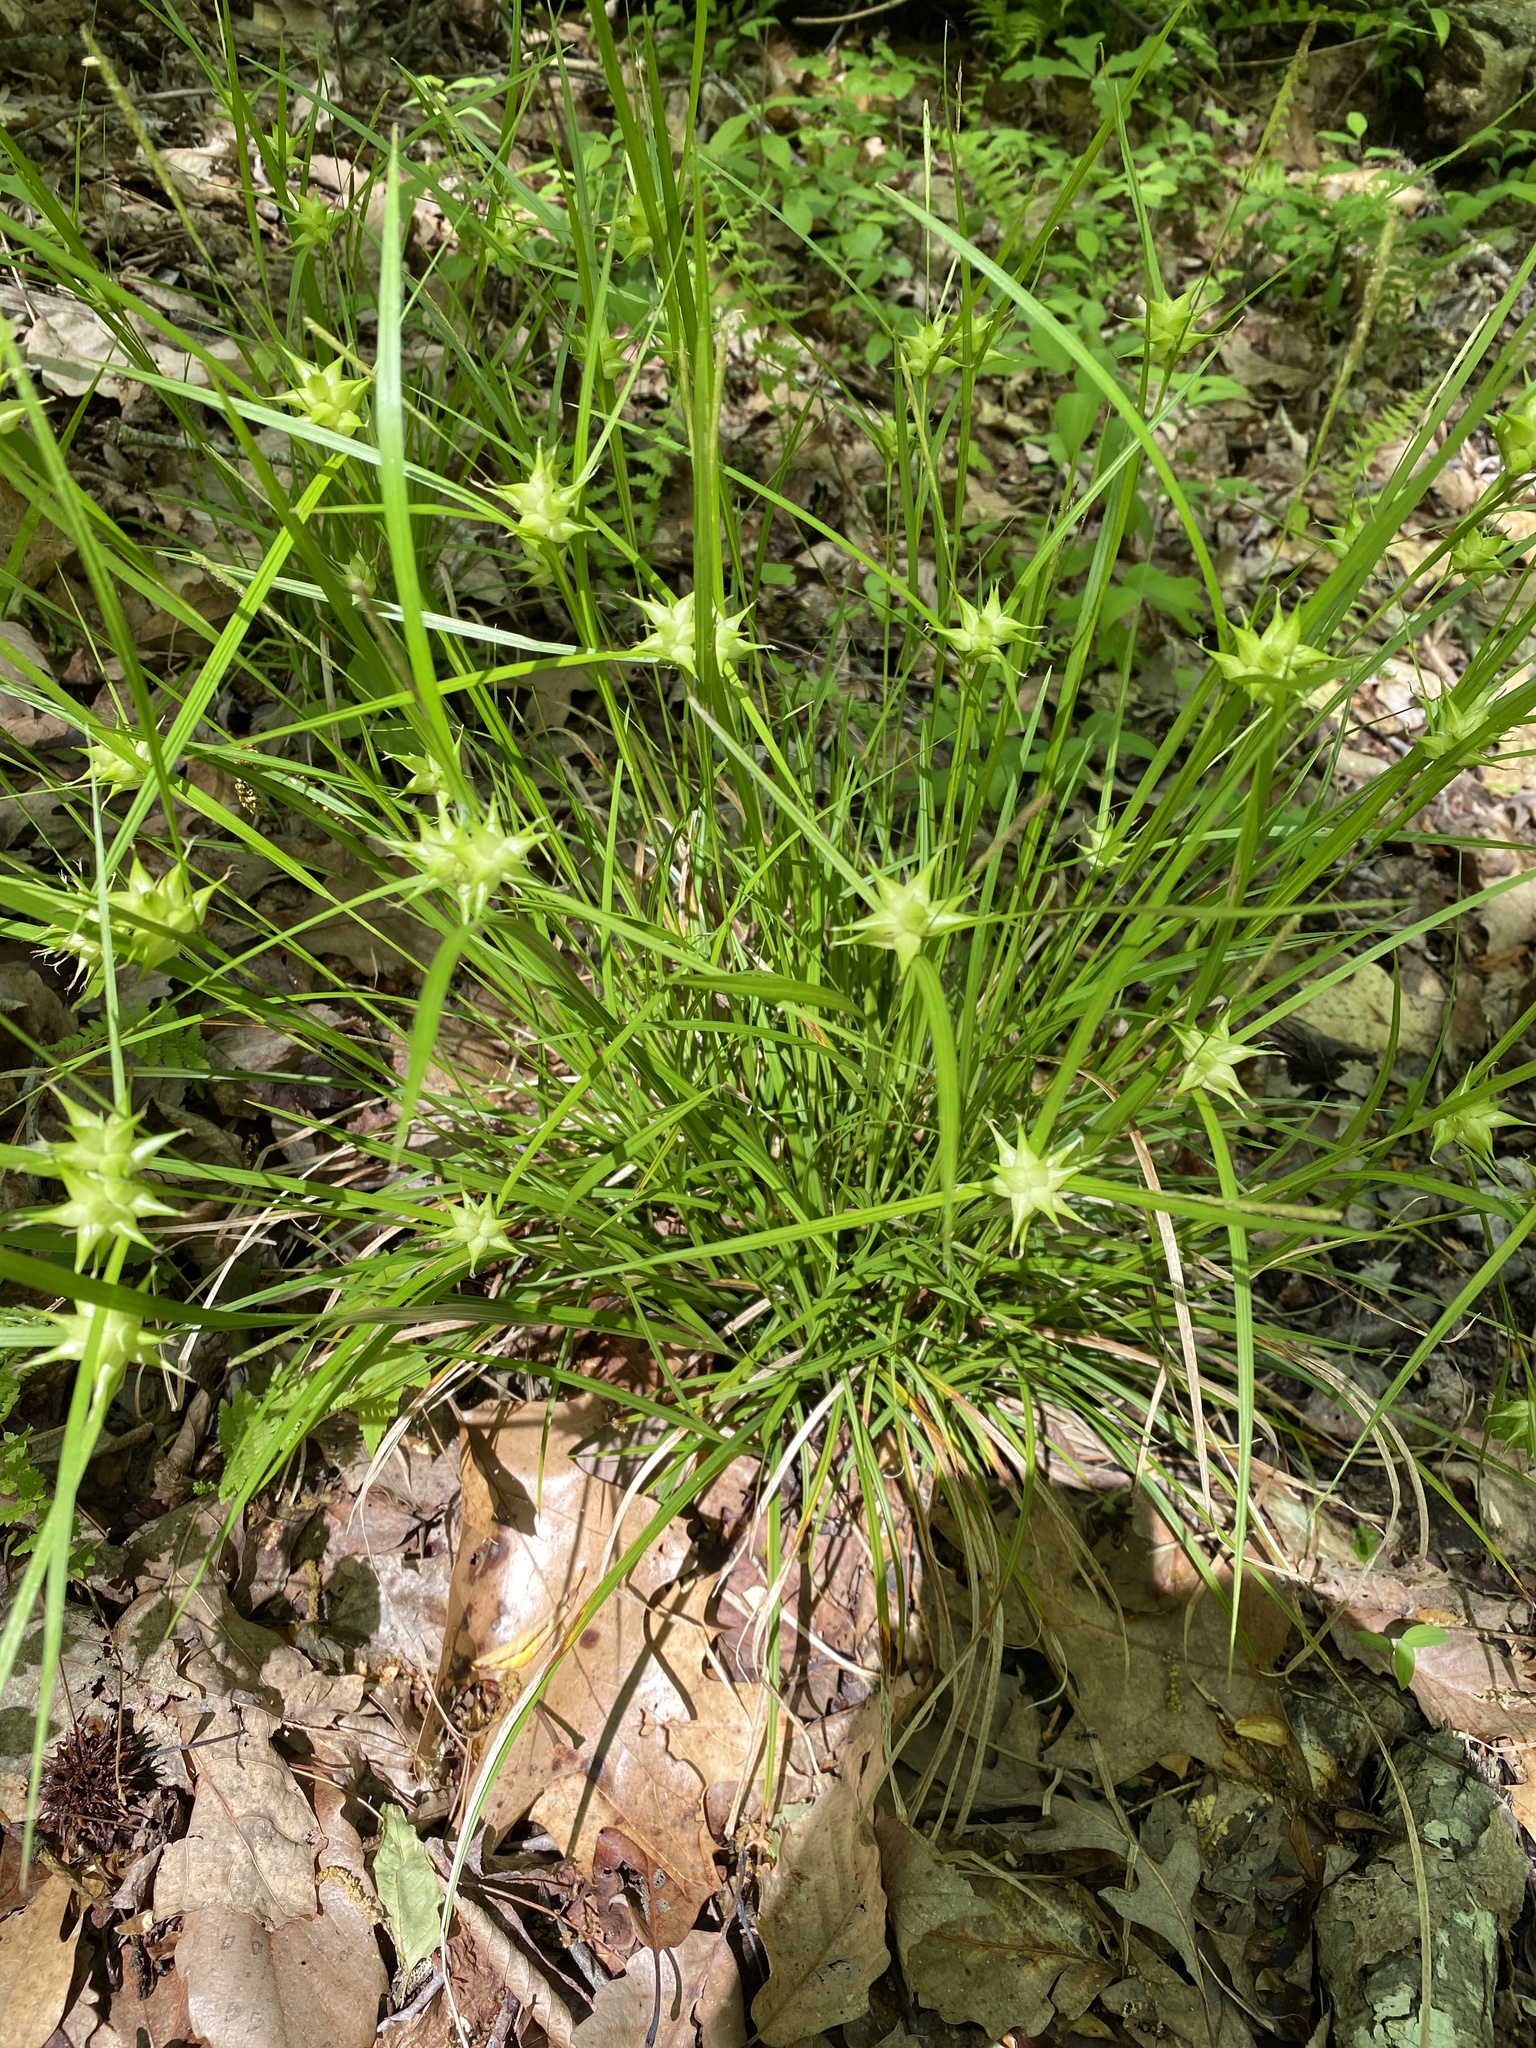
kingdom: Plantae
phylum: Tracheophyta
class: Liliopsida
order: Poales
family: Cyperaceae
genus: Carex
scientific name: Carex intumescens
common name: Greater bladder sedge
